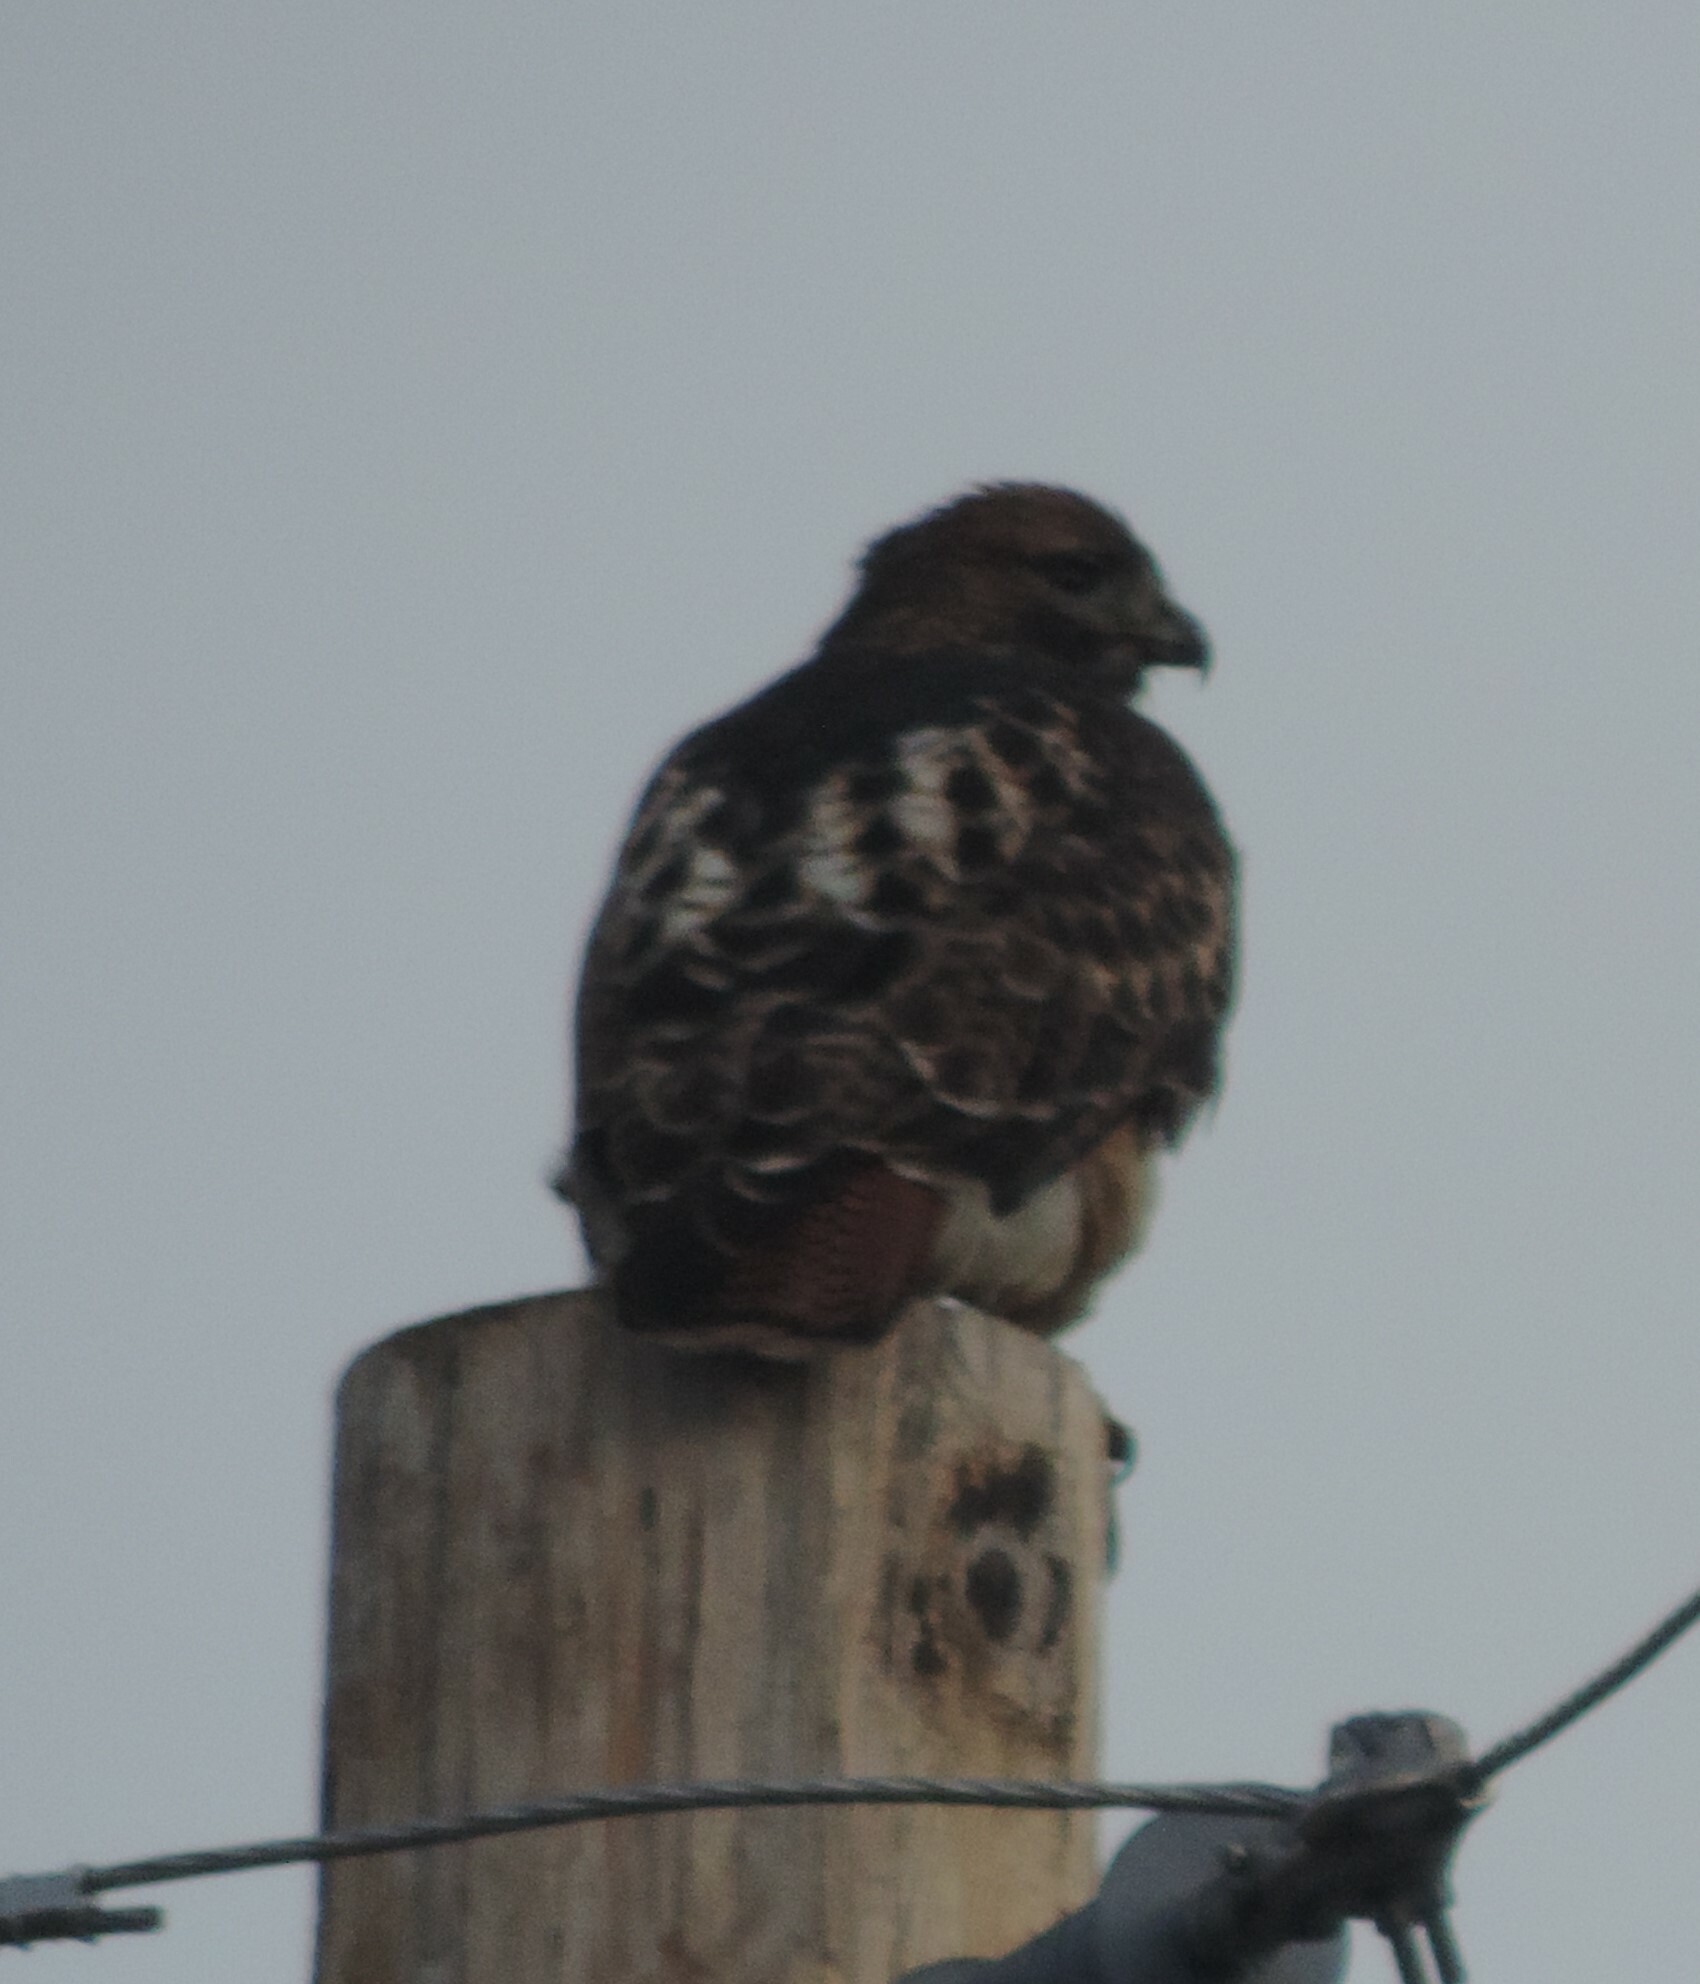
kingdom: Animalia
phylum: Chordata
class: Aves
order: Accipitriformes
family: Accipitridae
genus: Buteo
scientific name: Buteo jamaicensis
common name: Red-tailed hawk
